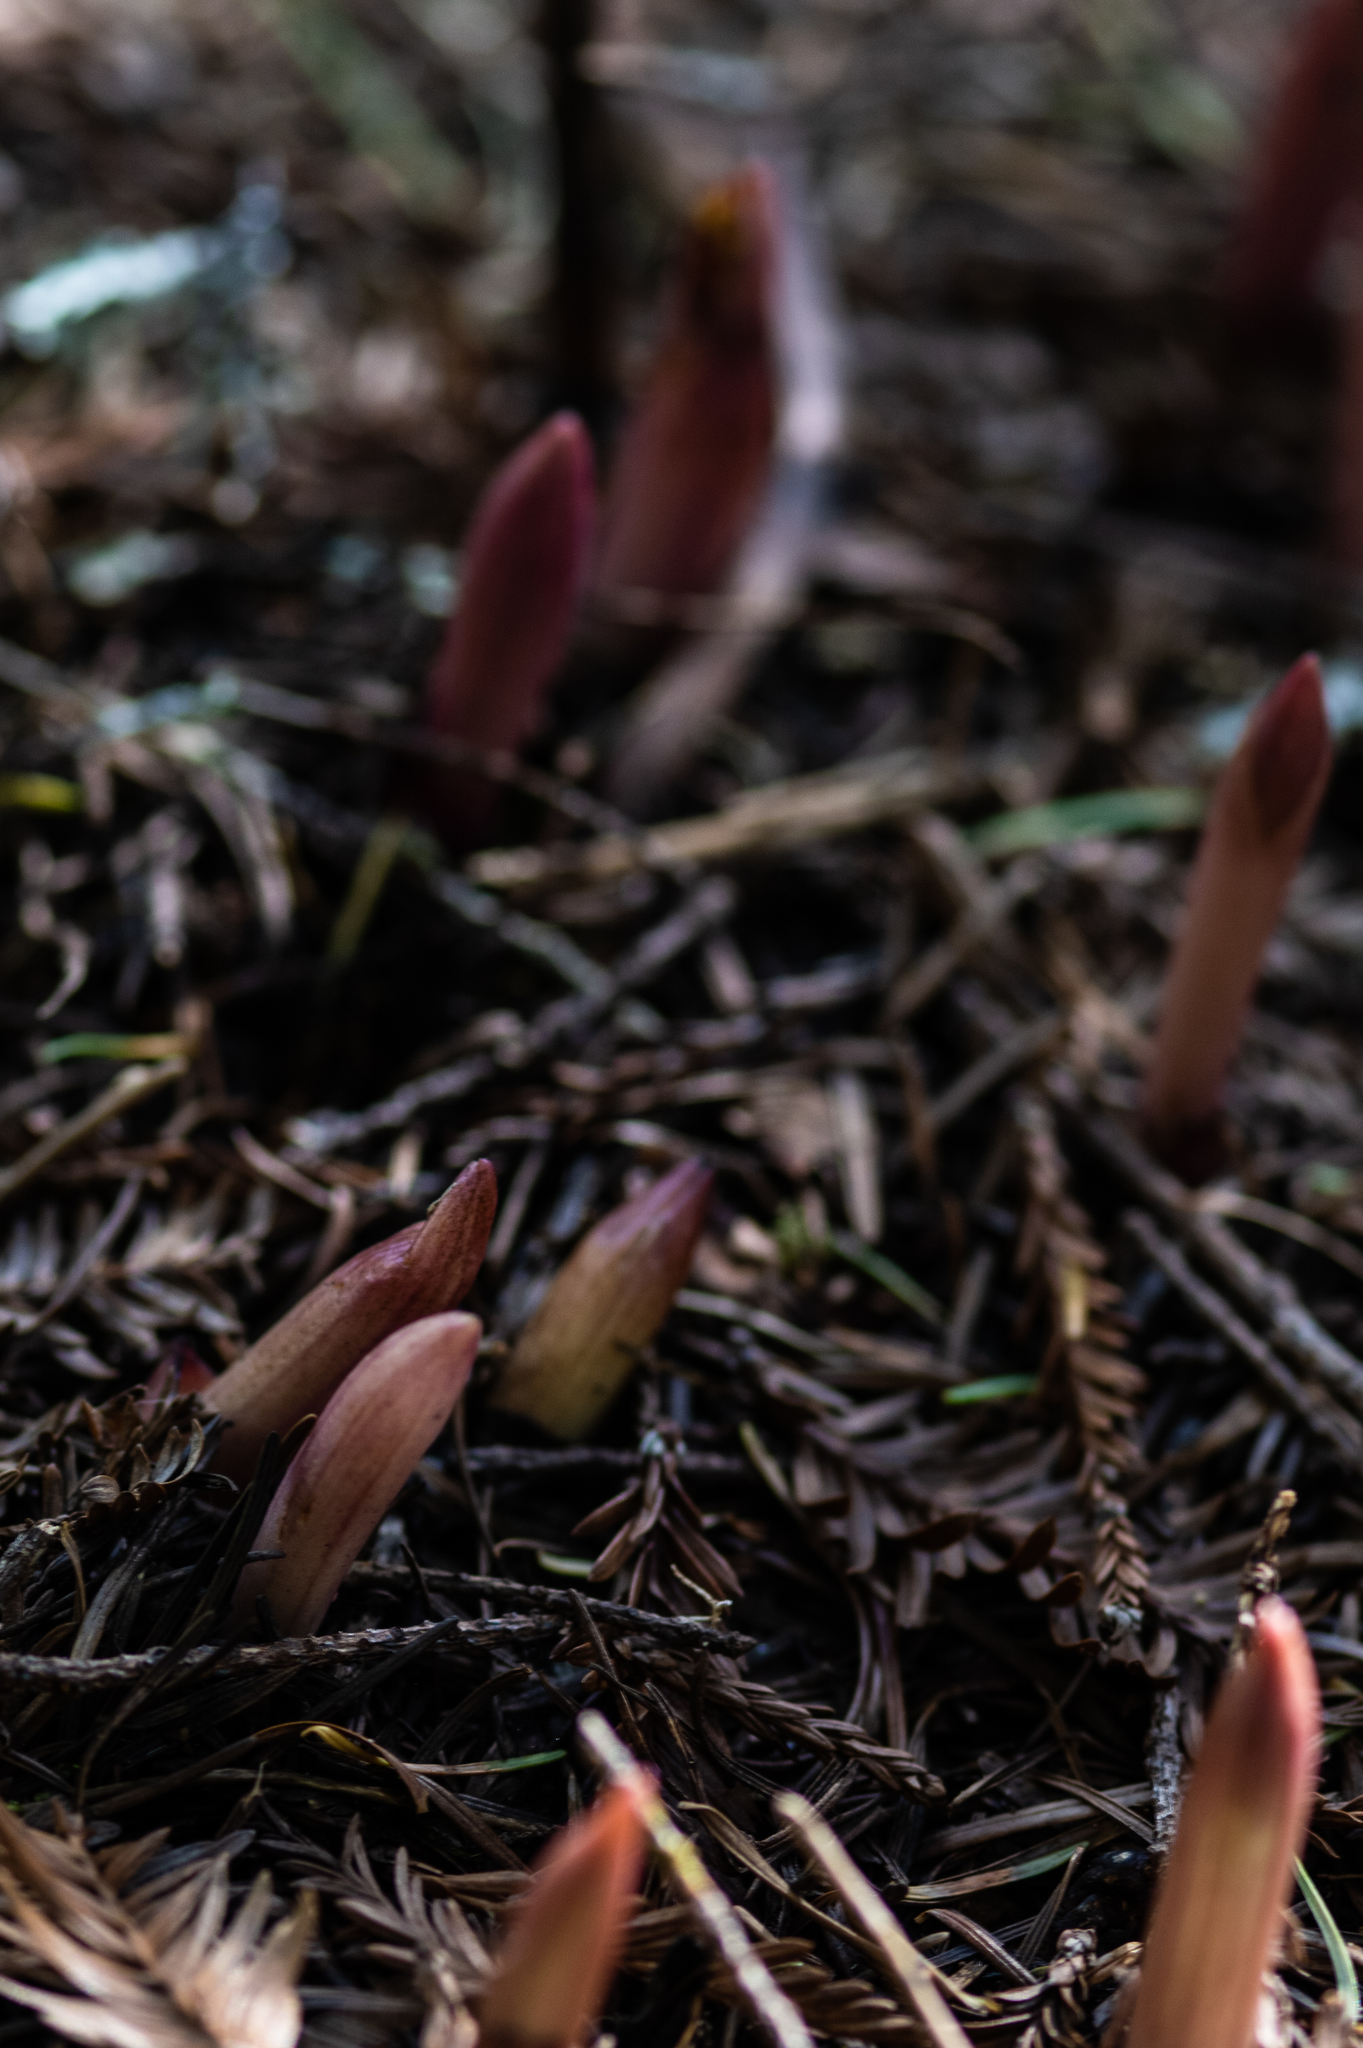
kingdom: Plantae
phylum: Tracheophyta
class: Liliopsida
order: Asparagales
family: Orchidaceae
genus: Corallorhiza
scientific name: Corallorhiza maculata
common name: Spotted coralroot
